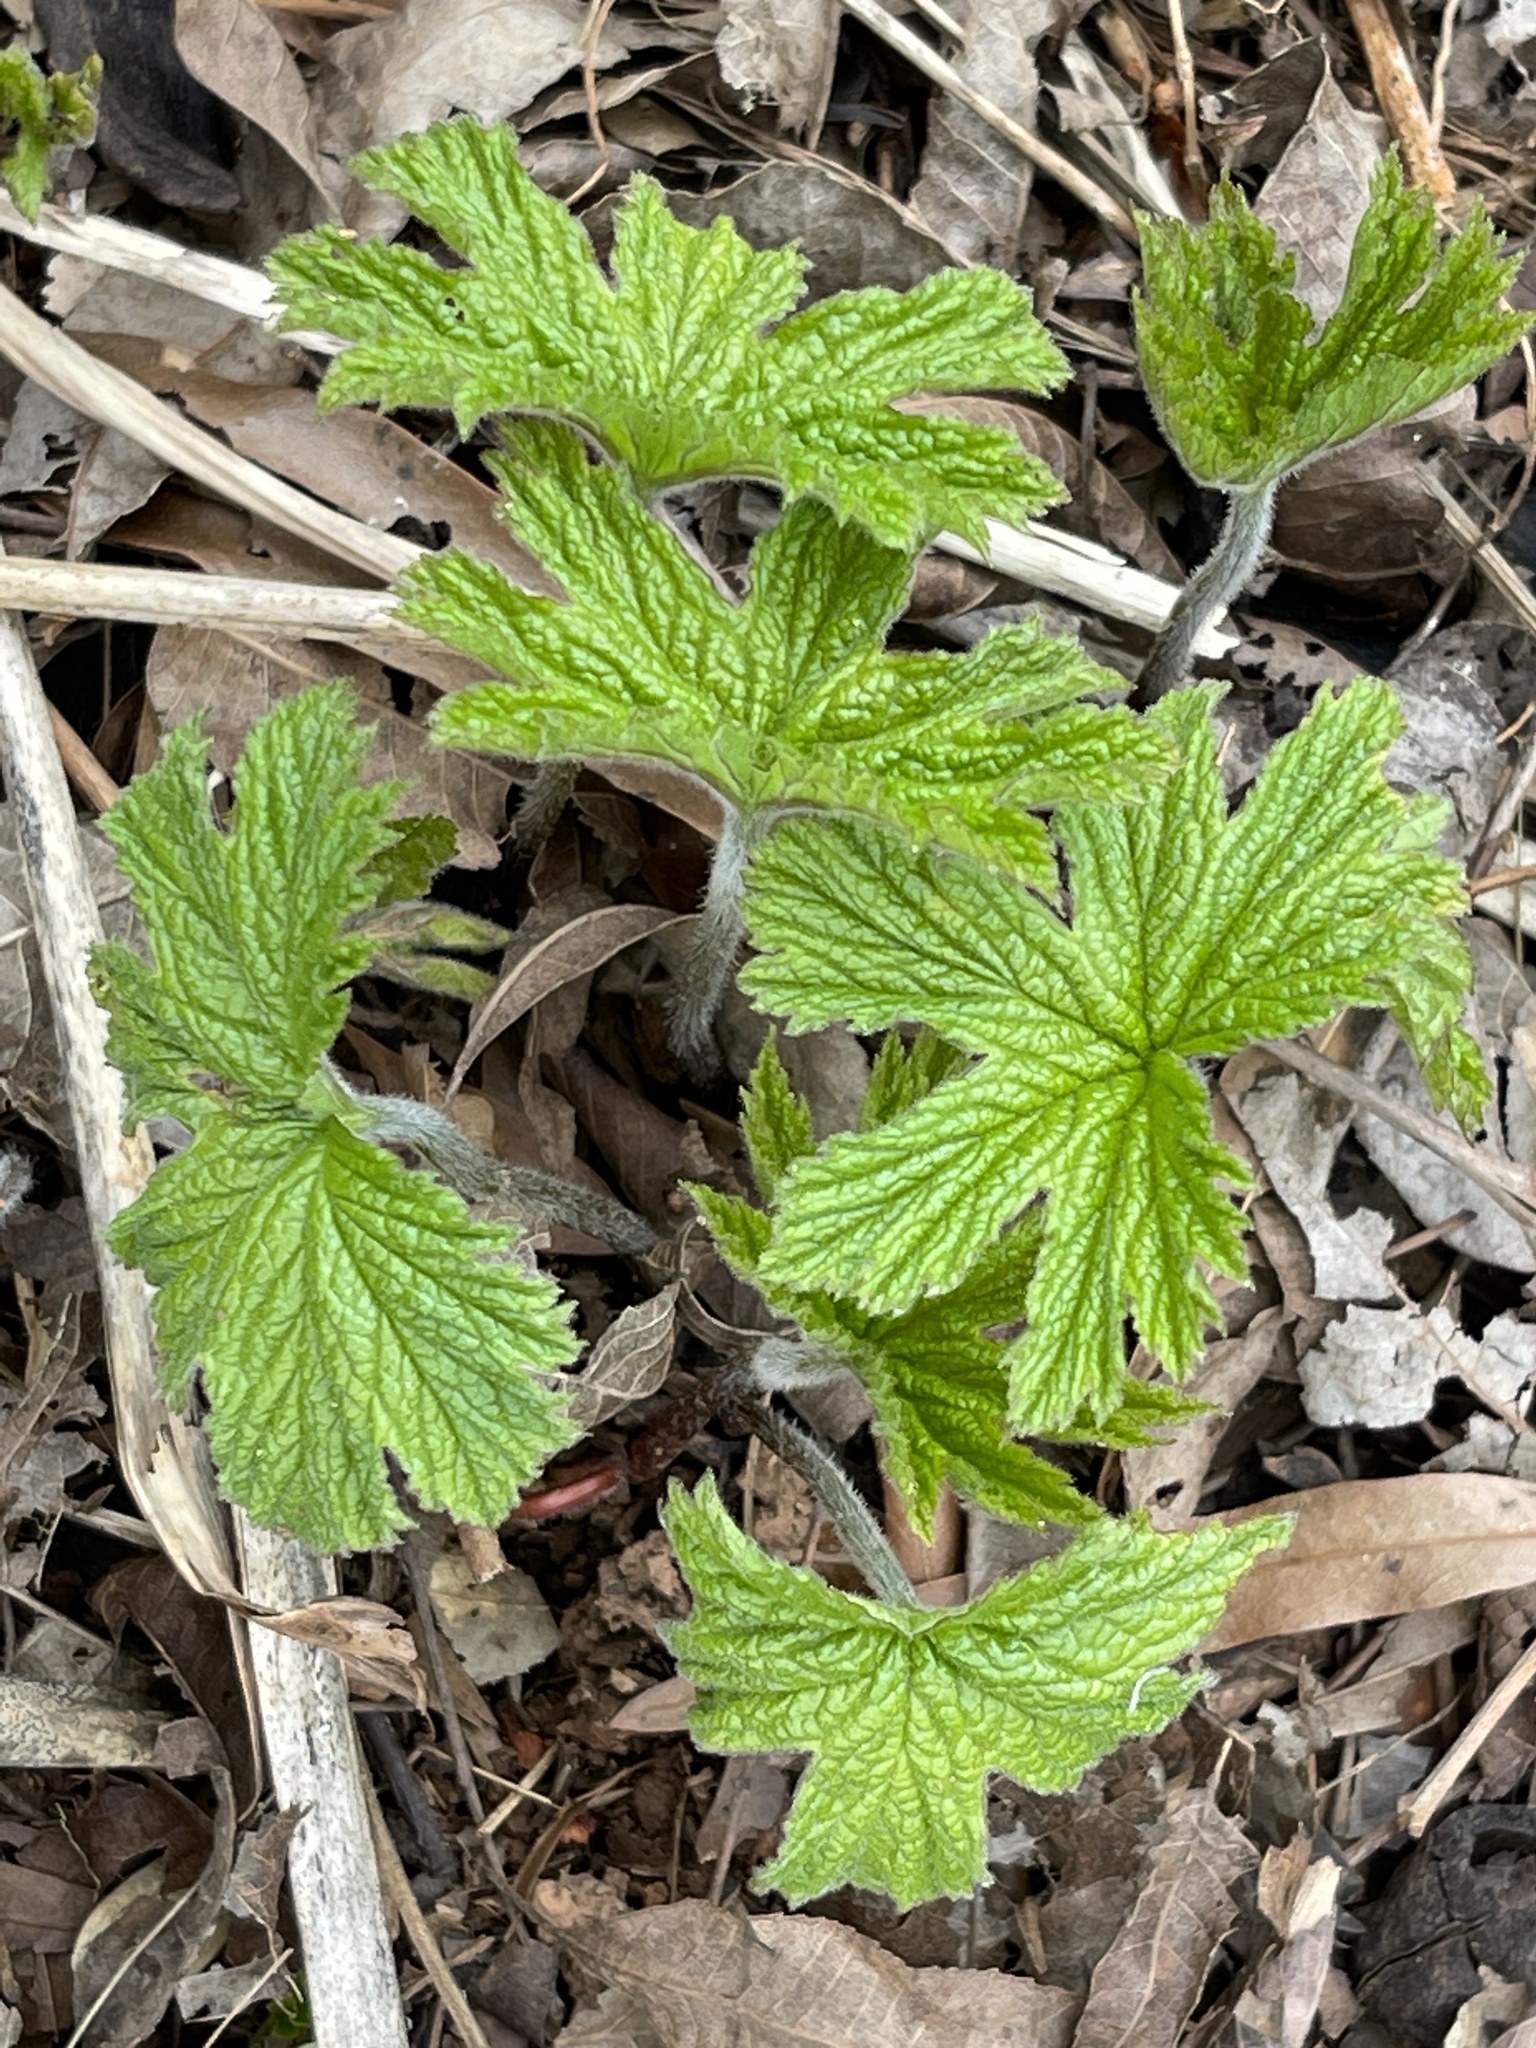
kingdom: Plantae
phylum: Tracheophyta
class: Magnoliopsida
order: Ranunculales
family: Ranunculaceae
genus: Hydrastis
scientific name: Hydrastis canadensis
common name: Goldenseal
